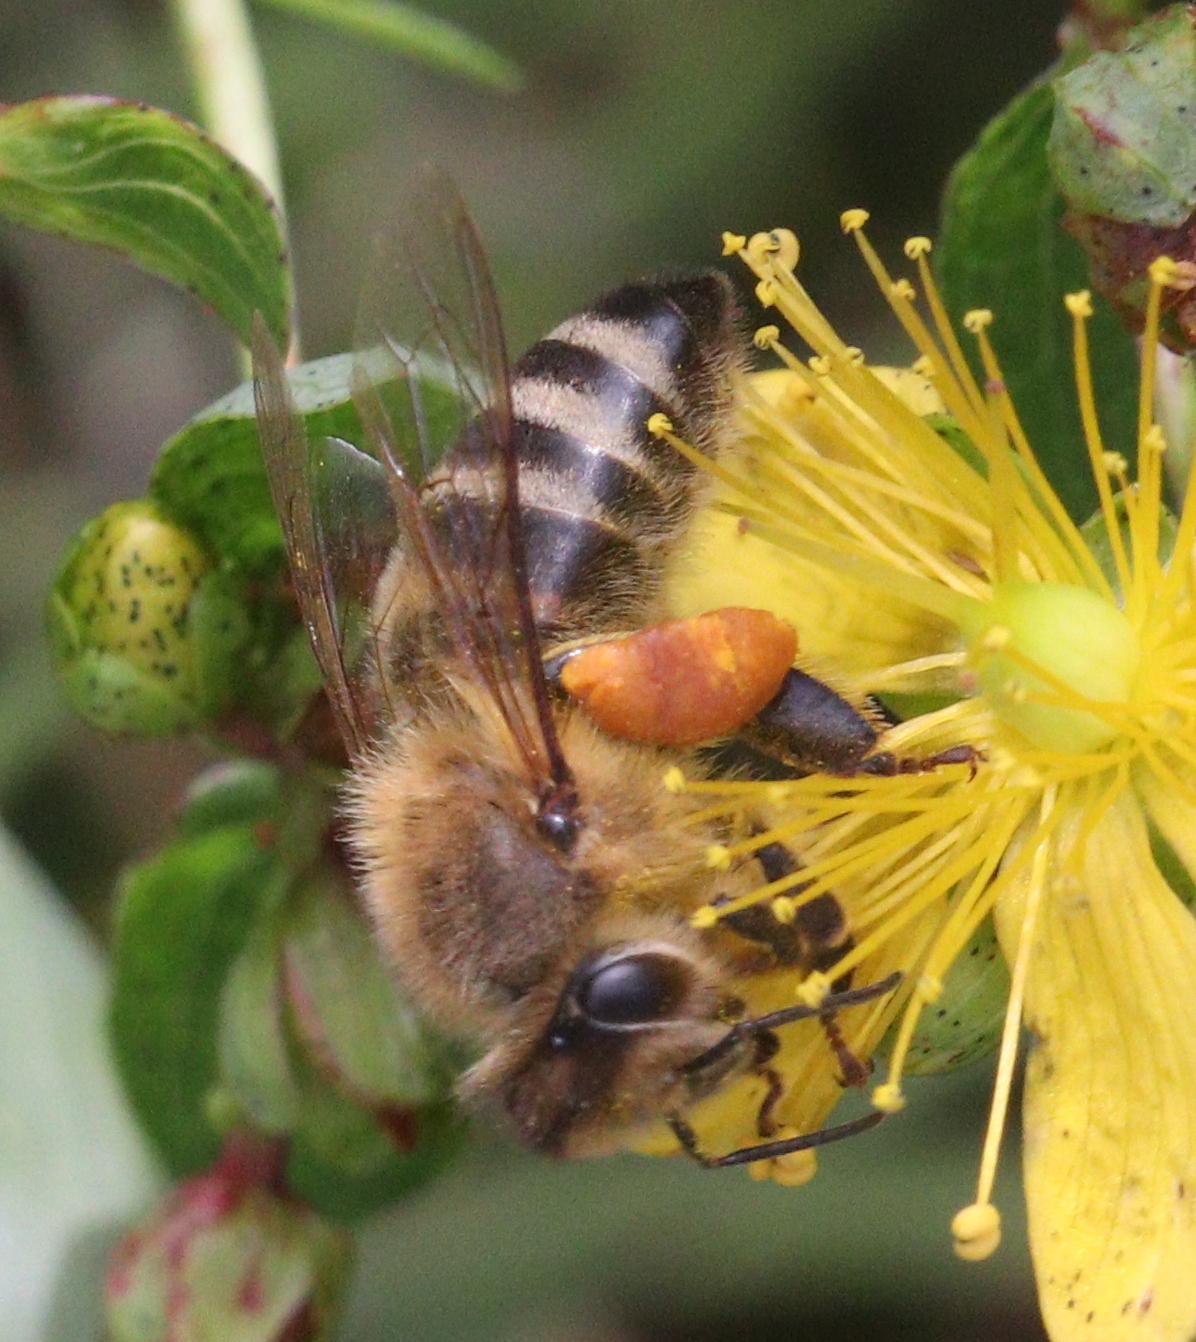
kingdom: Animalia
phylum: Arthropoda
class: Insecta
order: Hymenoptera
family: Apidae
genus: Apis
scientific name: Apis mellifera
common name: Honey bee
